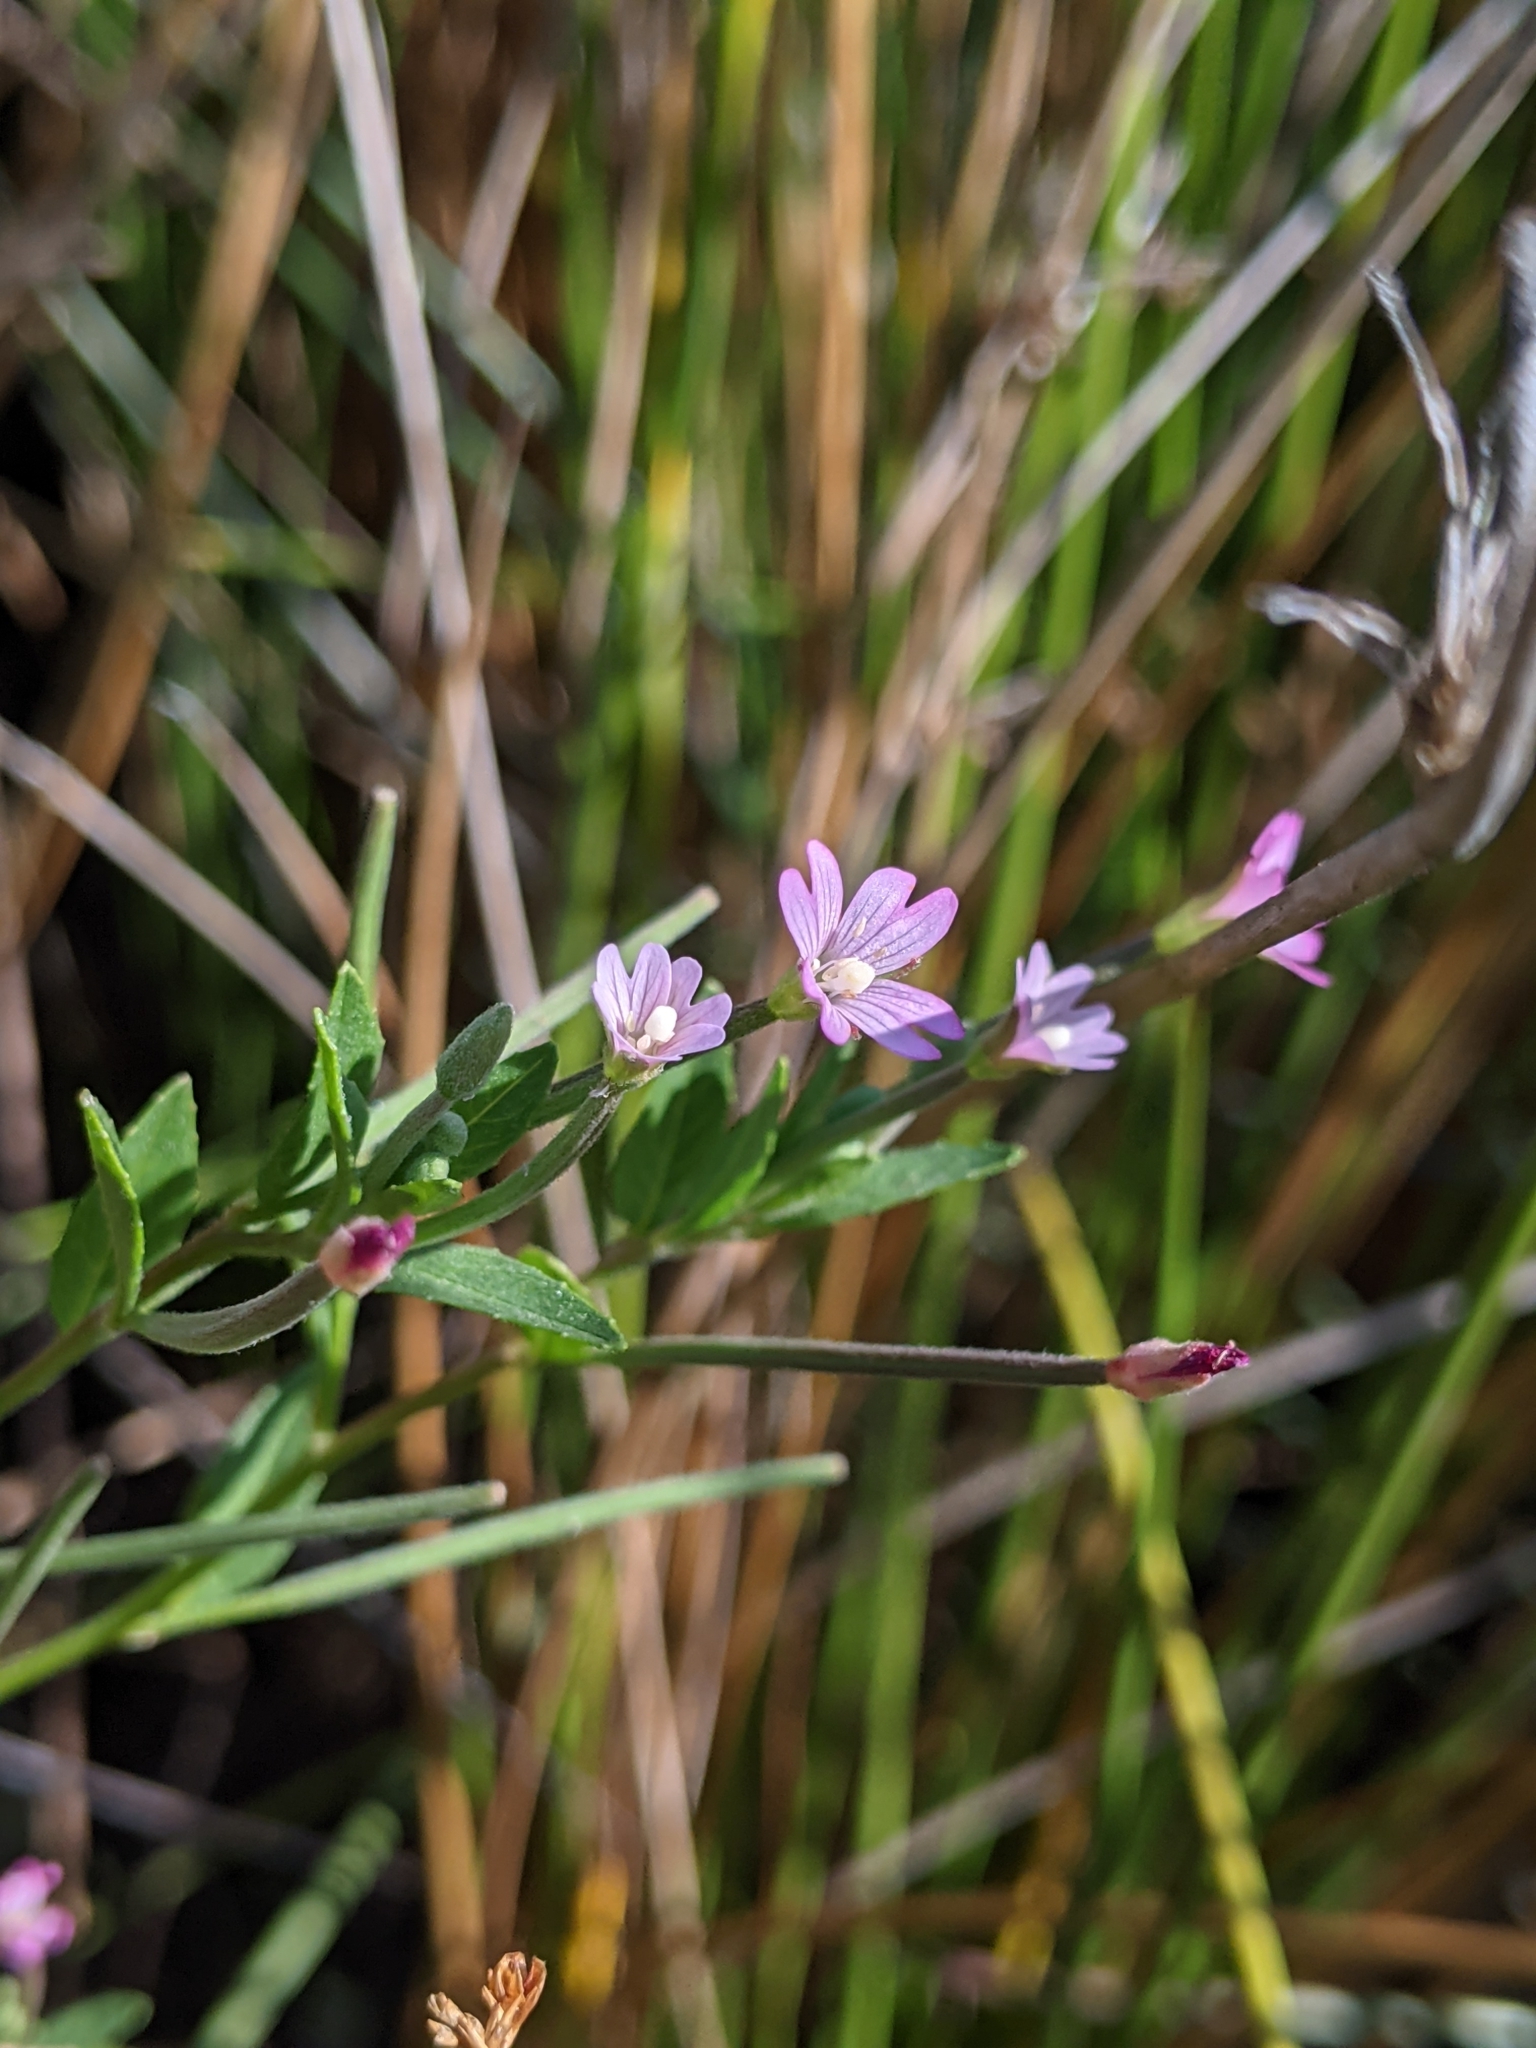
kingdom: Plantae
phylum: Tracheophyta
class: Magnoliopsida
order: Myrtales
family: Onagraceae
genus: Epilobium
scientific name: Epilobium ciliatum
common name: American willowherb
